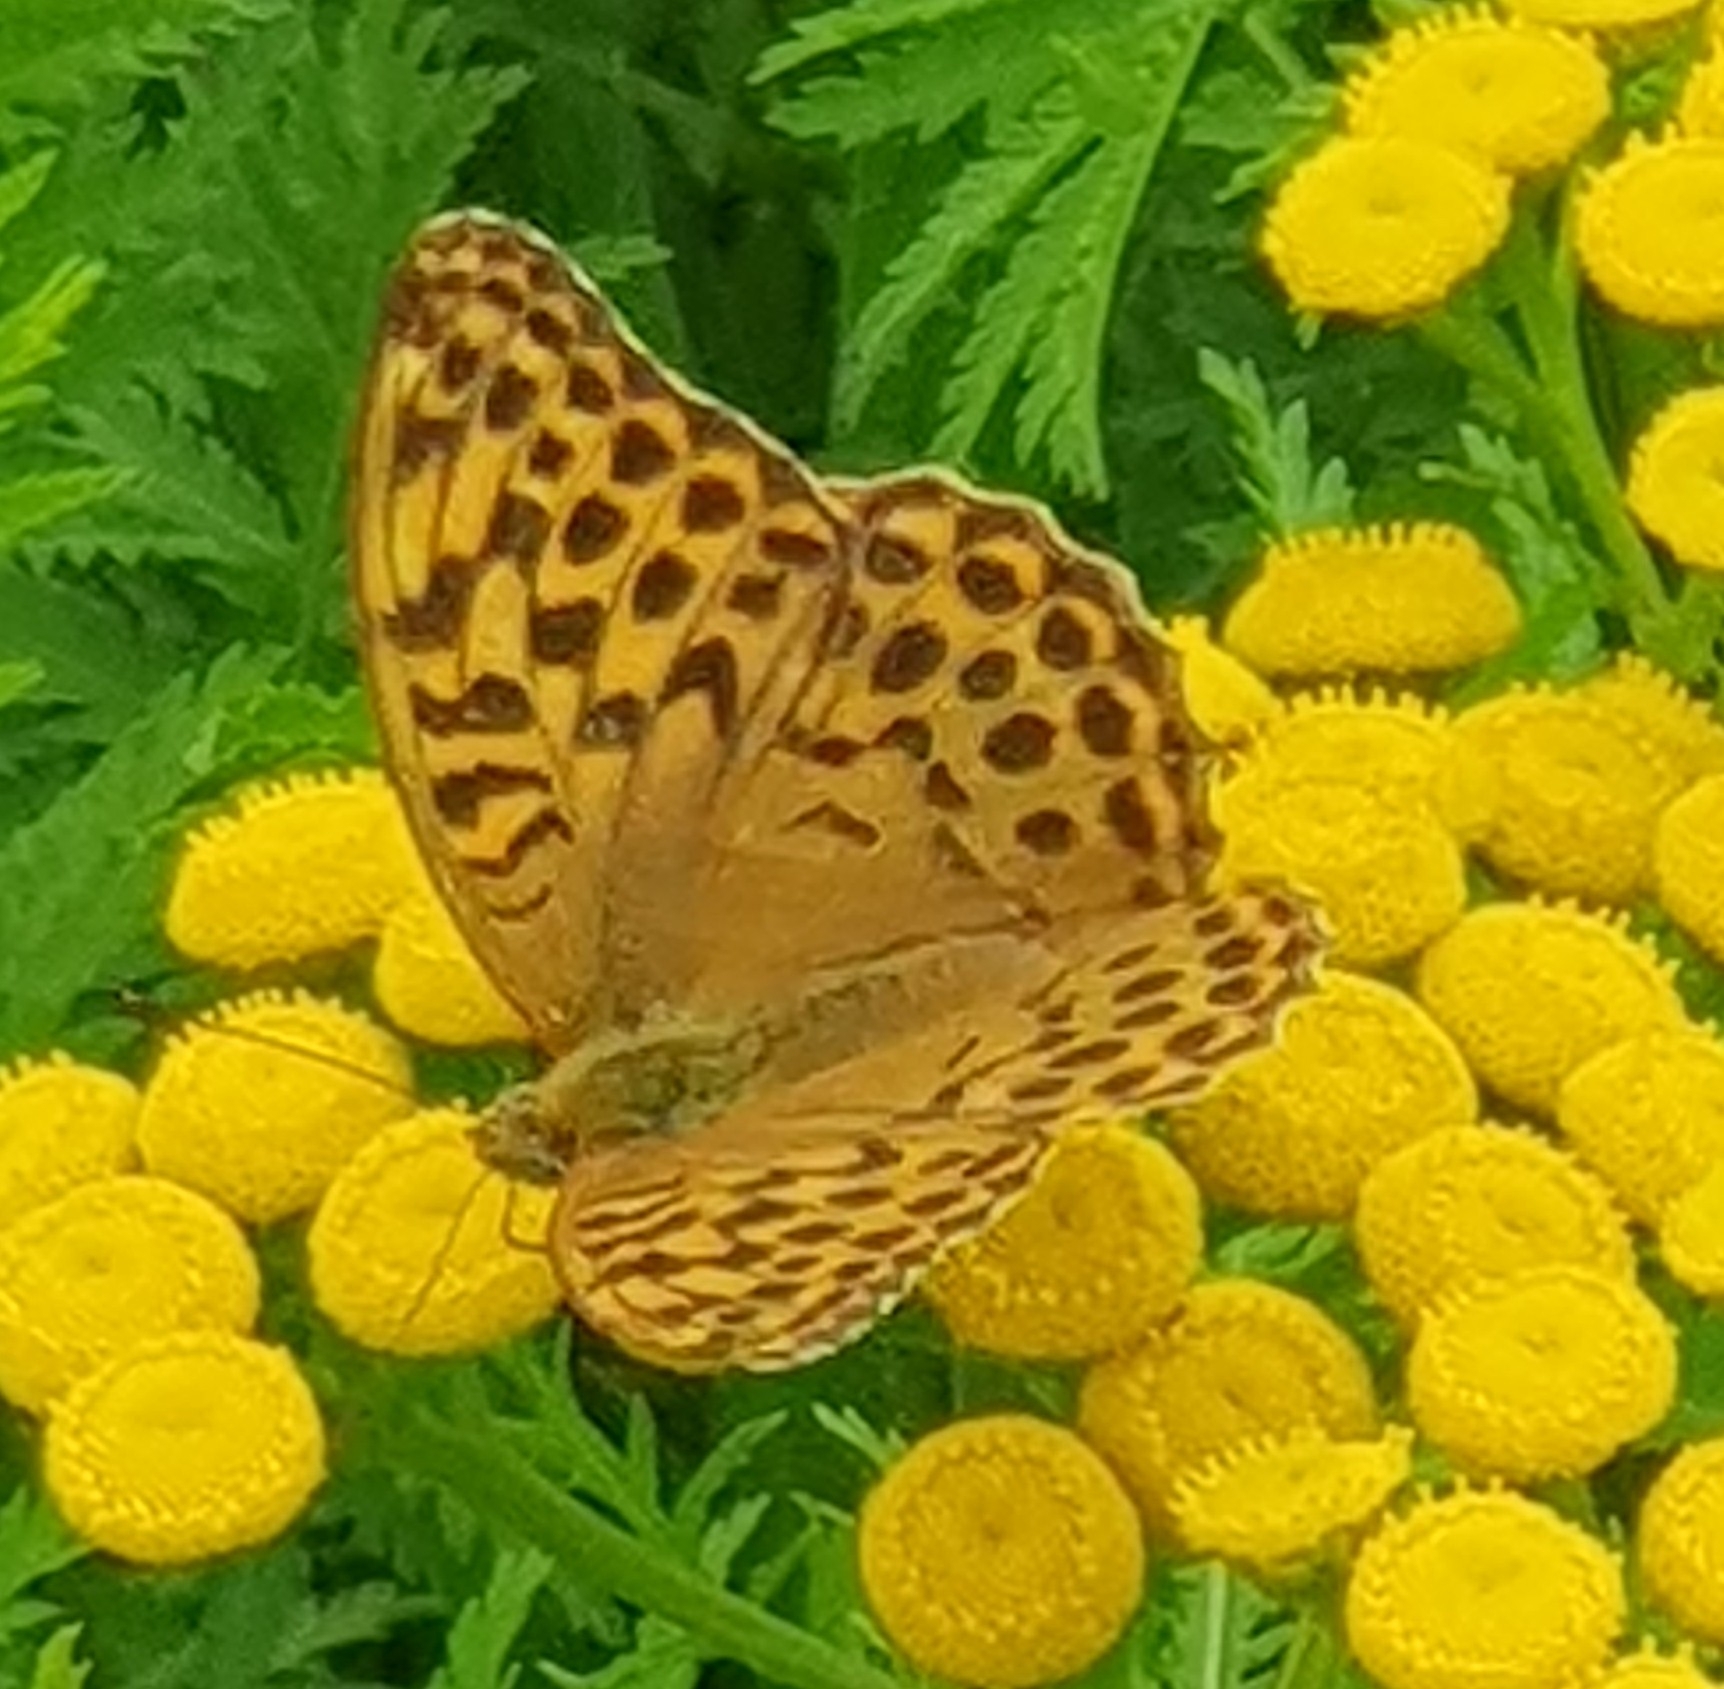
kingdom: Animalia
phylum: Arthropoda
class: Insecta
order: Lepidoptera
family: Nymphalidae
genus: Argynnis
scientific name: Argynnis paphia
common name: Silver-washed fritillary
